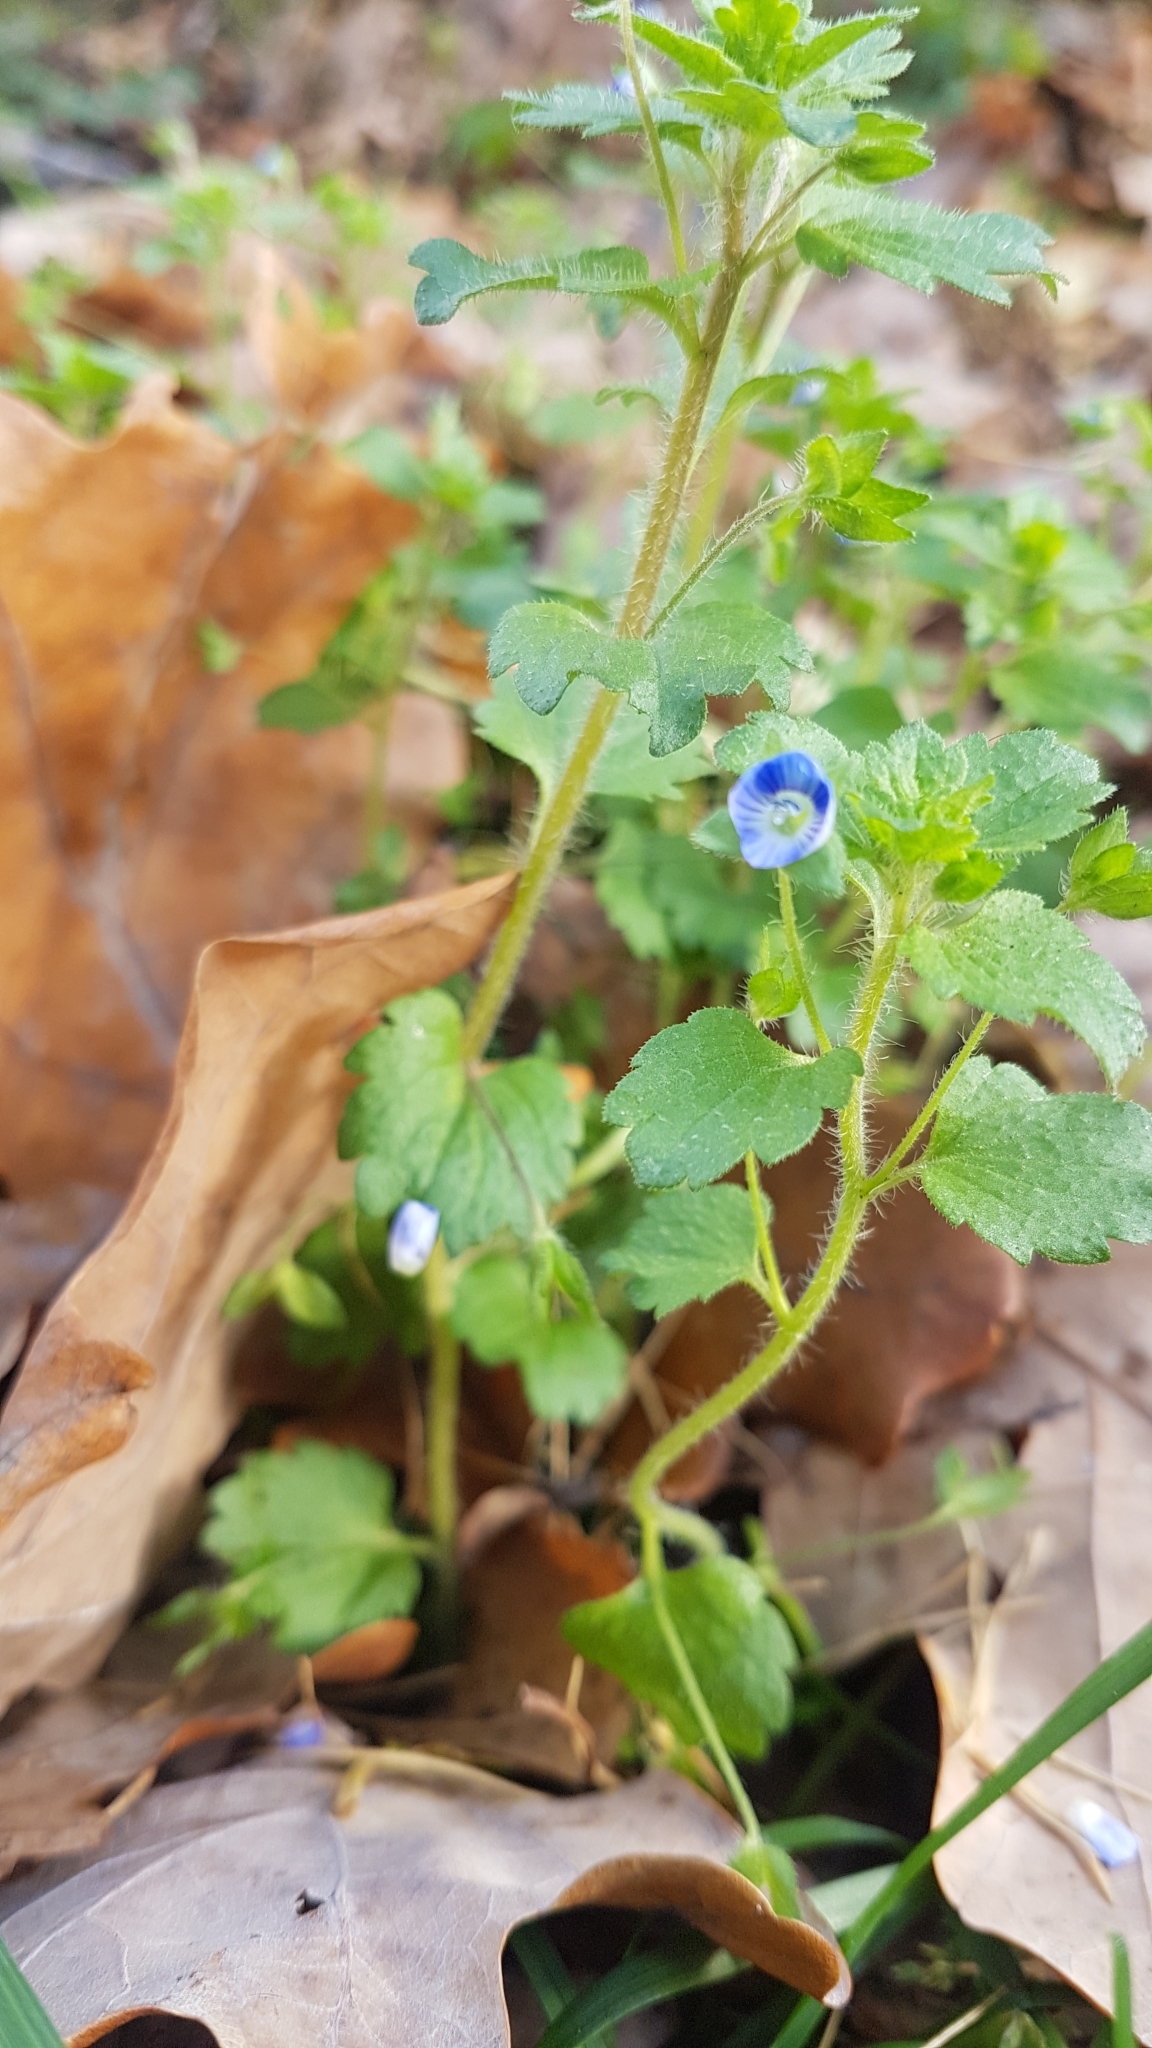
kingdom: Plantae
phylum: Tracheophyta
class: Magnoliopsida
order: Lamiales
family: Plantaginaceae
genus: Veronica
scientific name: Veronica persica
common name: Common field-speedwell
